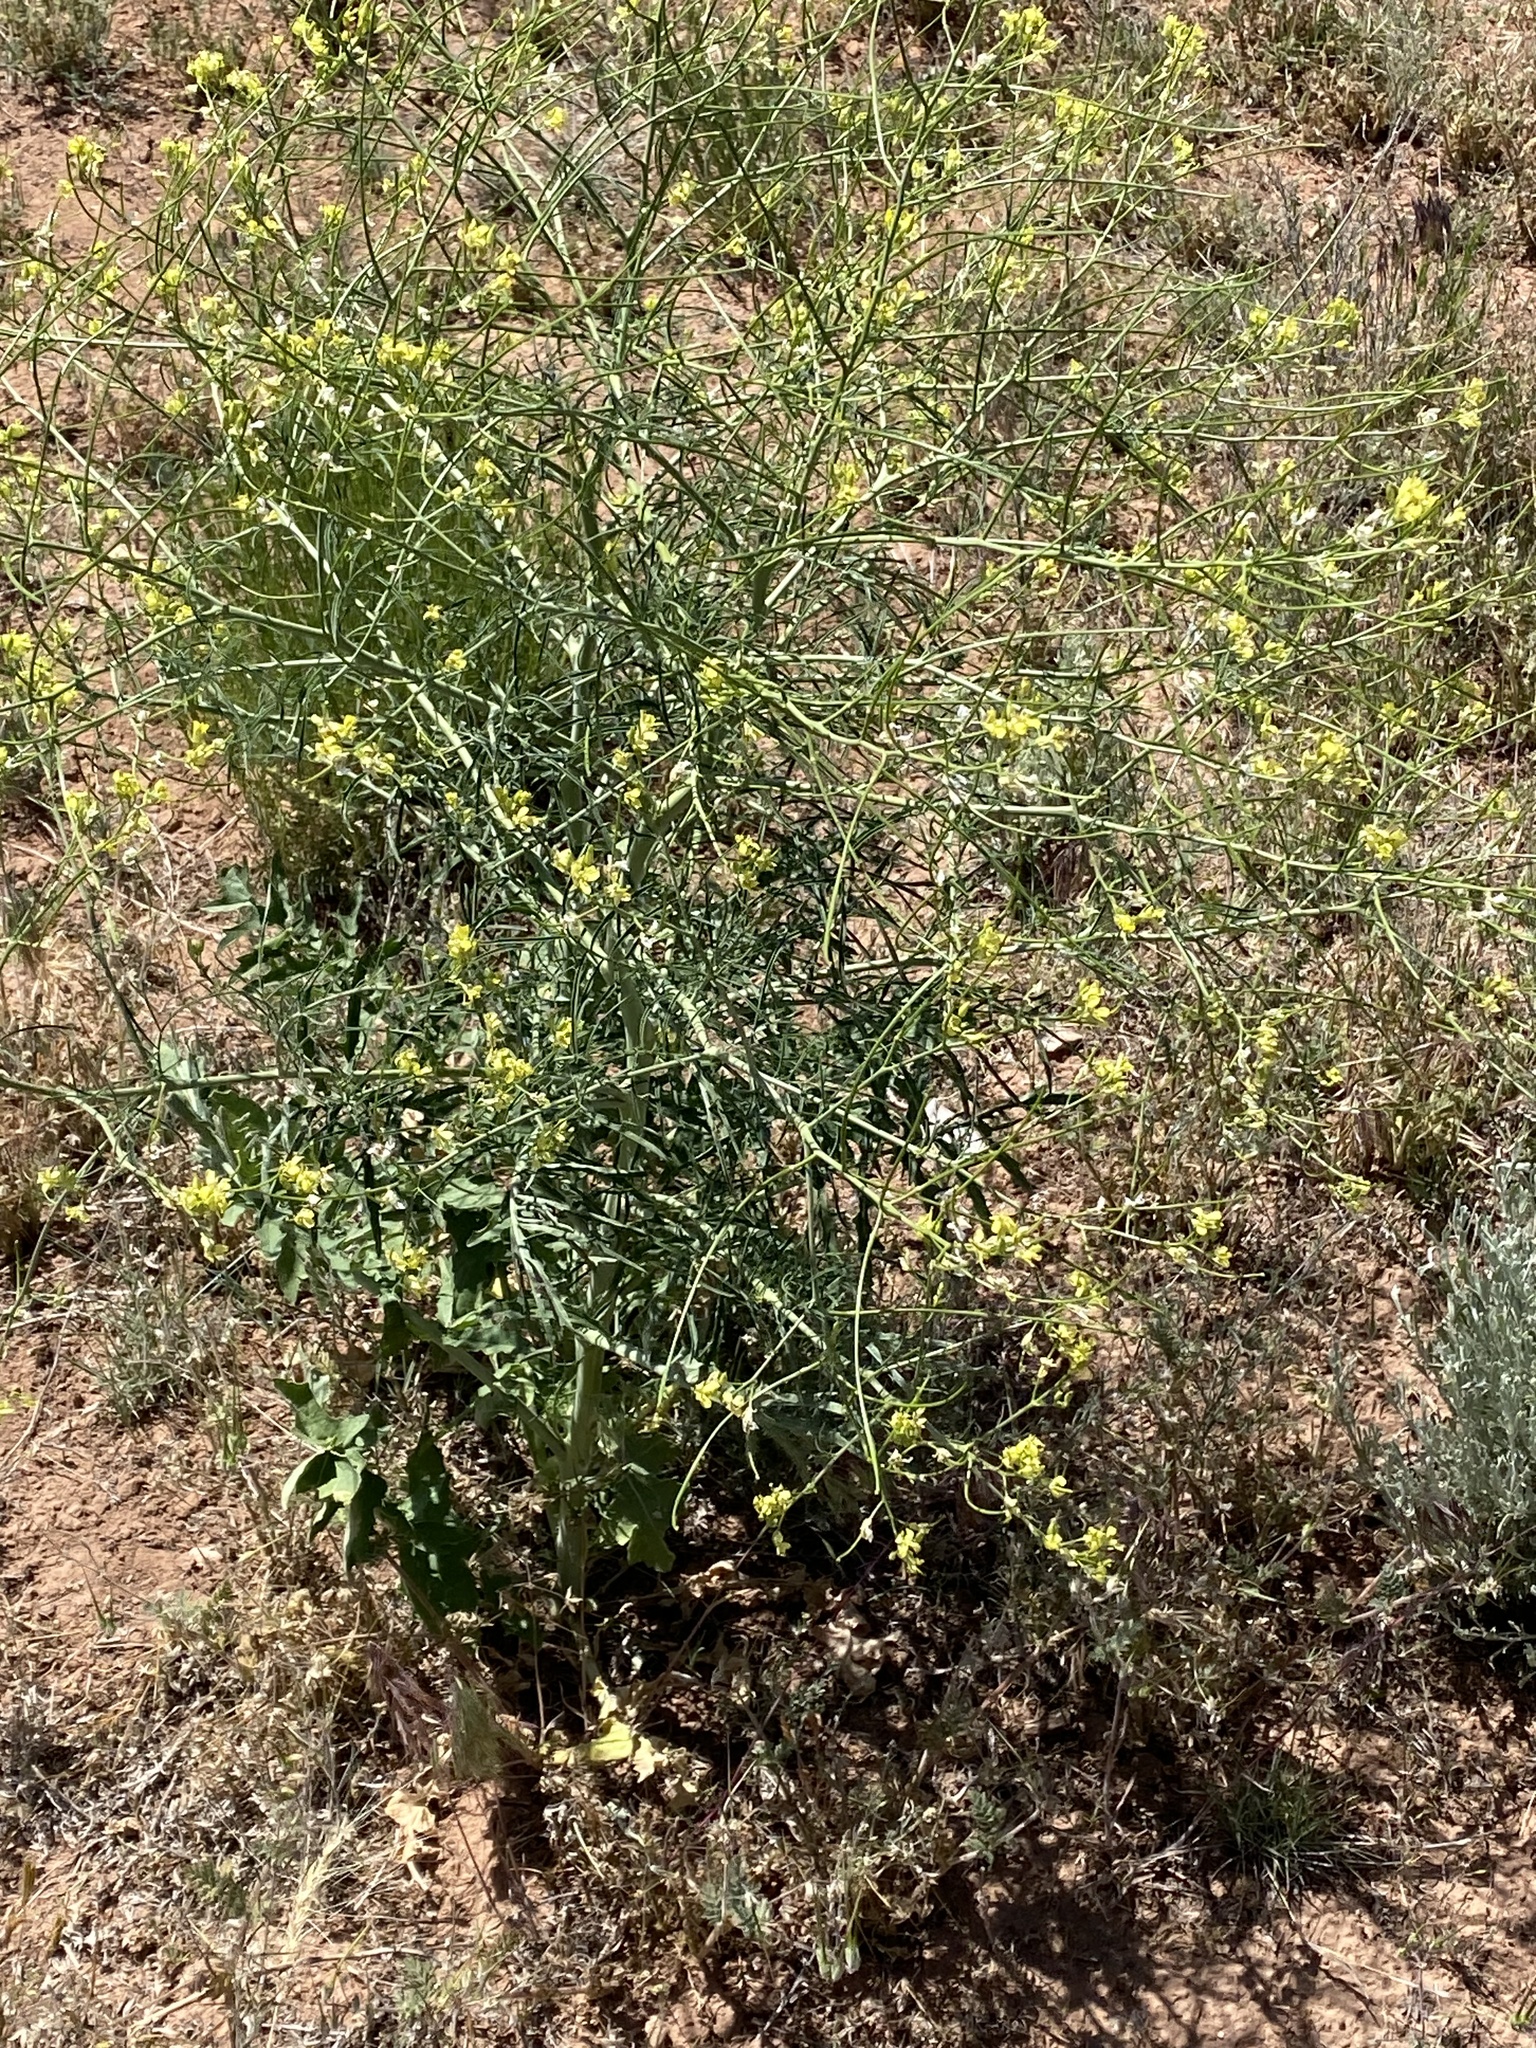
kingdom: Plantae
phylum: Tracheophyta
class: Magnoliopsida
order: Brassicales
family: Brassicaceae
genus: Sisymbrium
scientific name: Sisymbrium altissimum
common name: Tall rocket
